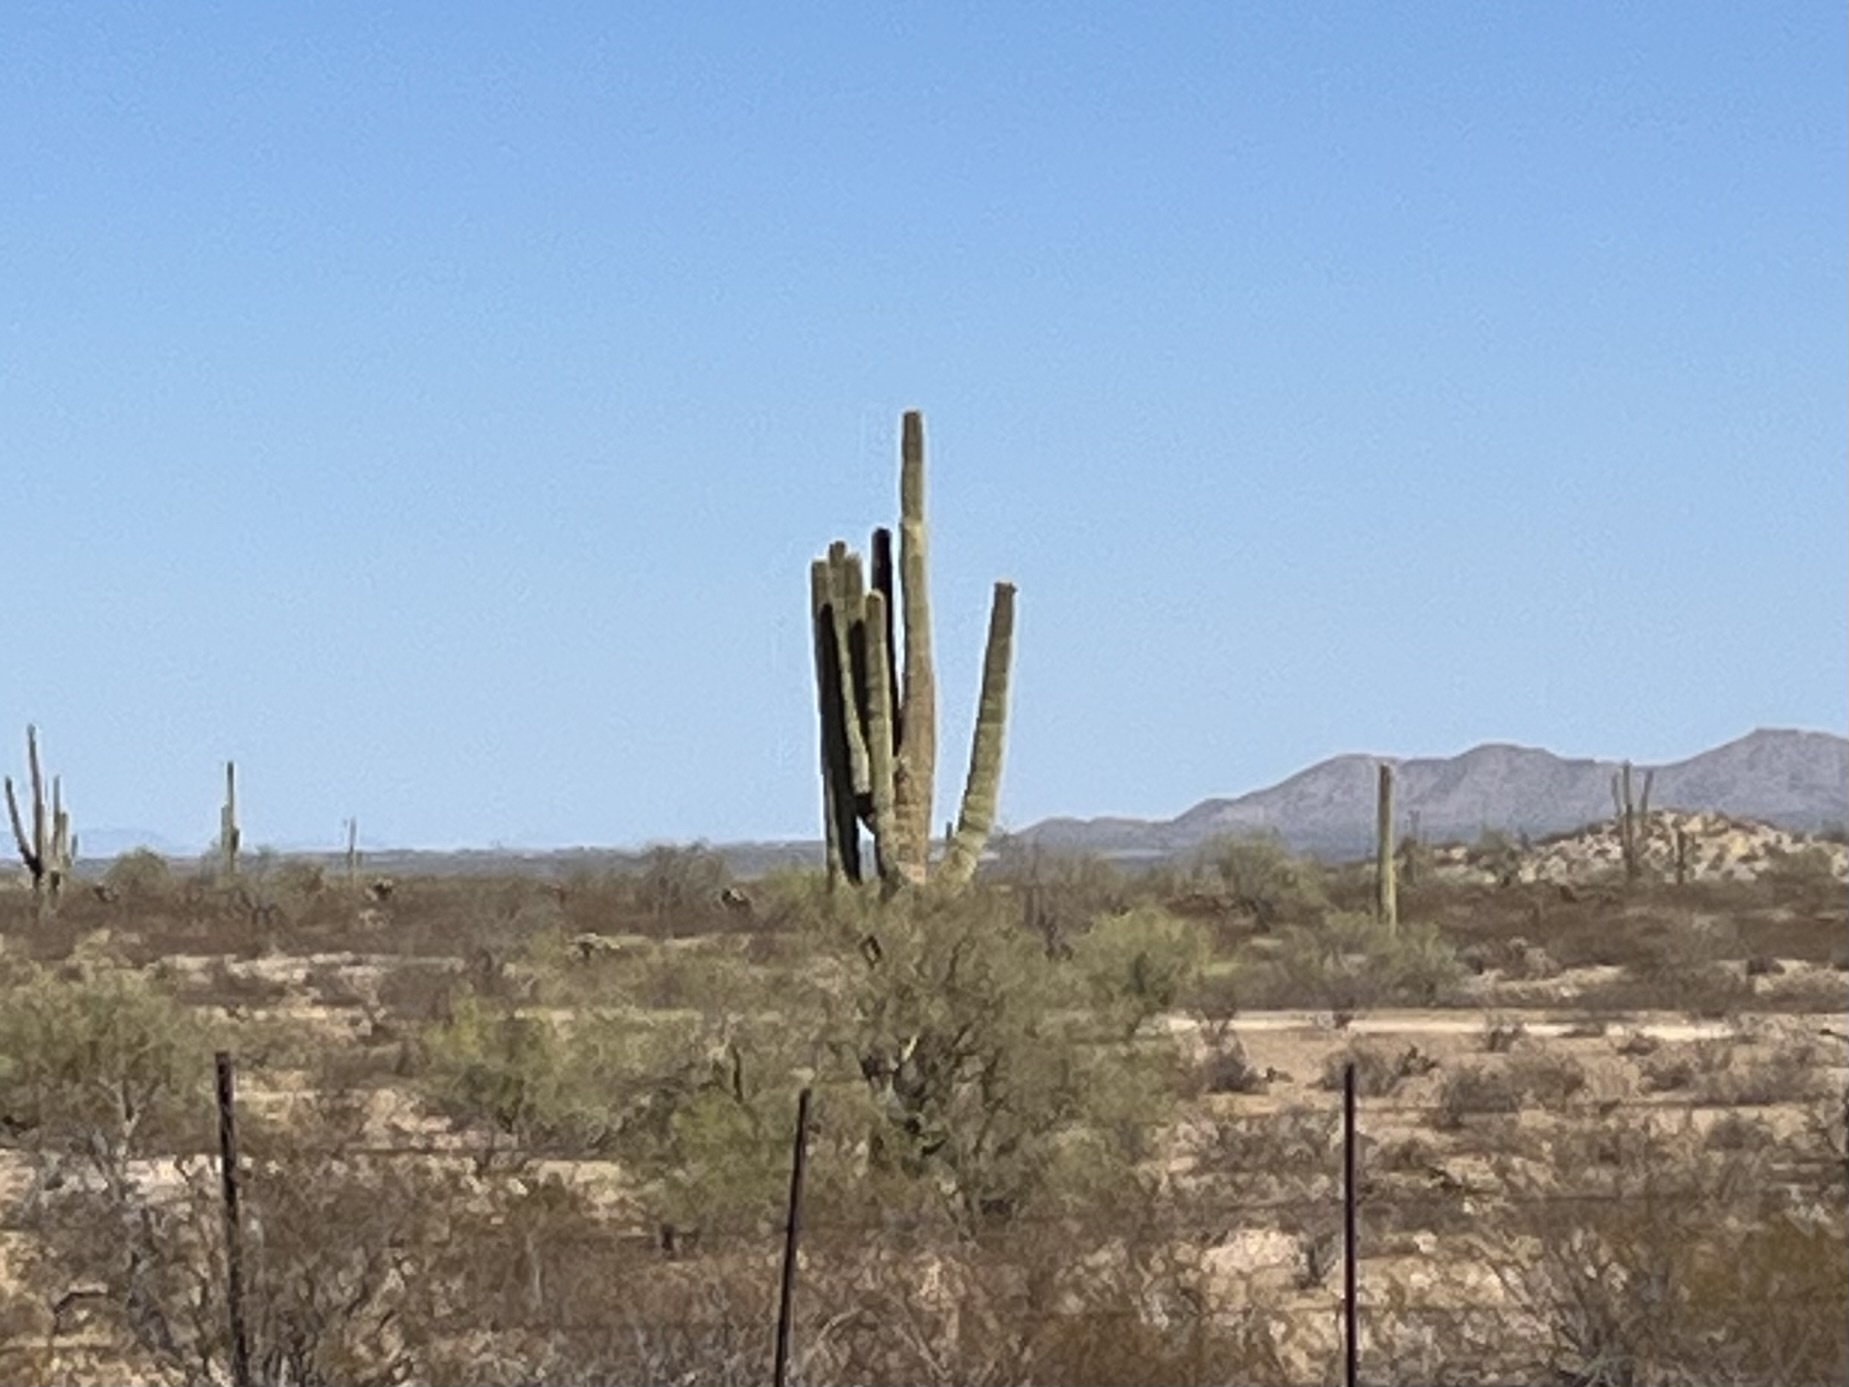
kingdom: Plantae
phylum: Tracheophyta
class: Magnoliopsida
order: Caryophyllales
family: Cactaceae
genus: Carnegiea
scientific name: Carnegiea gigantea
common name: Saguaro
